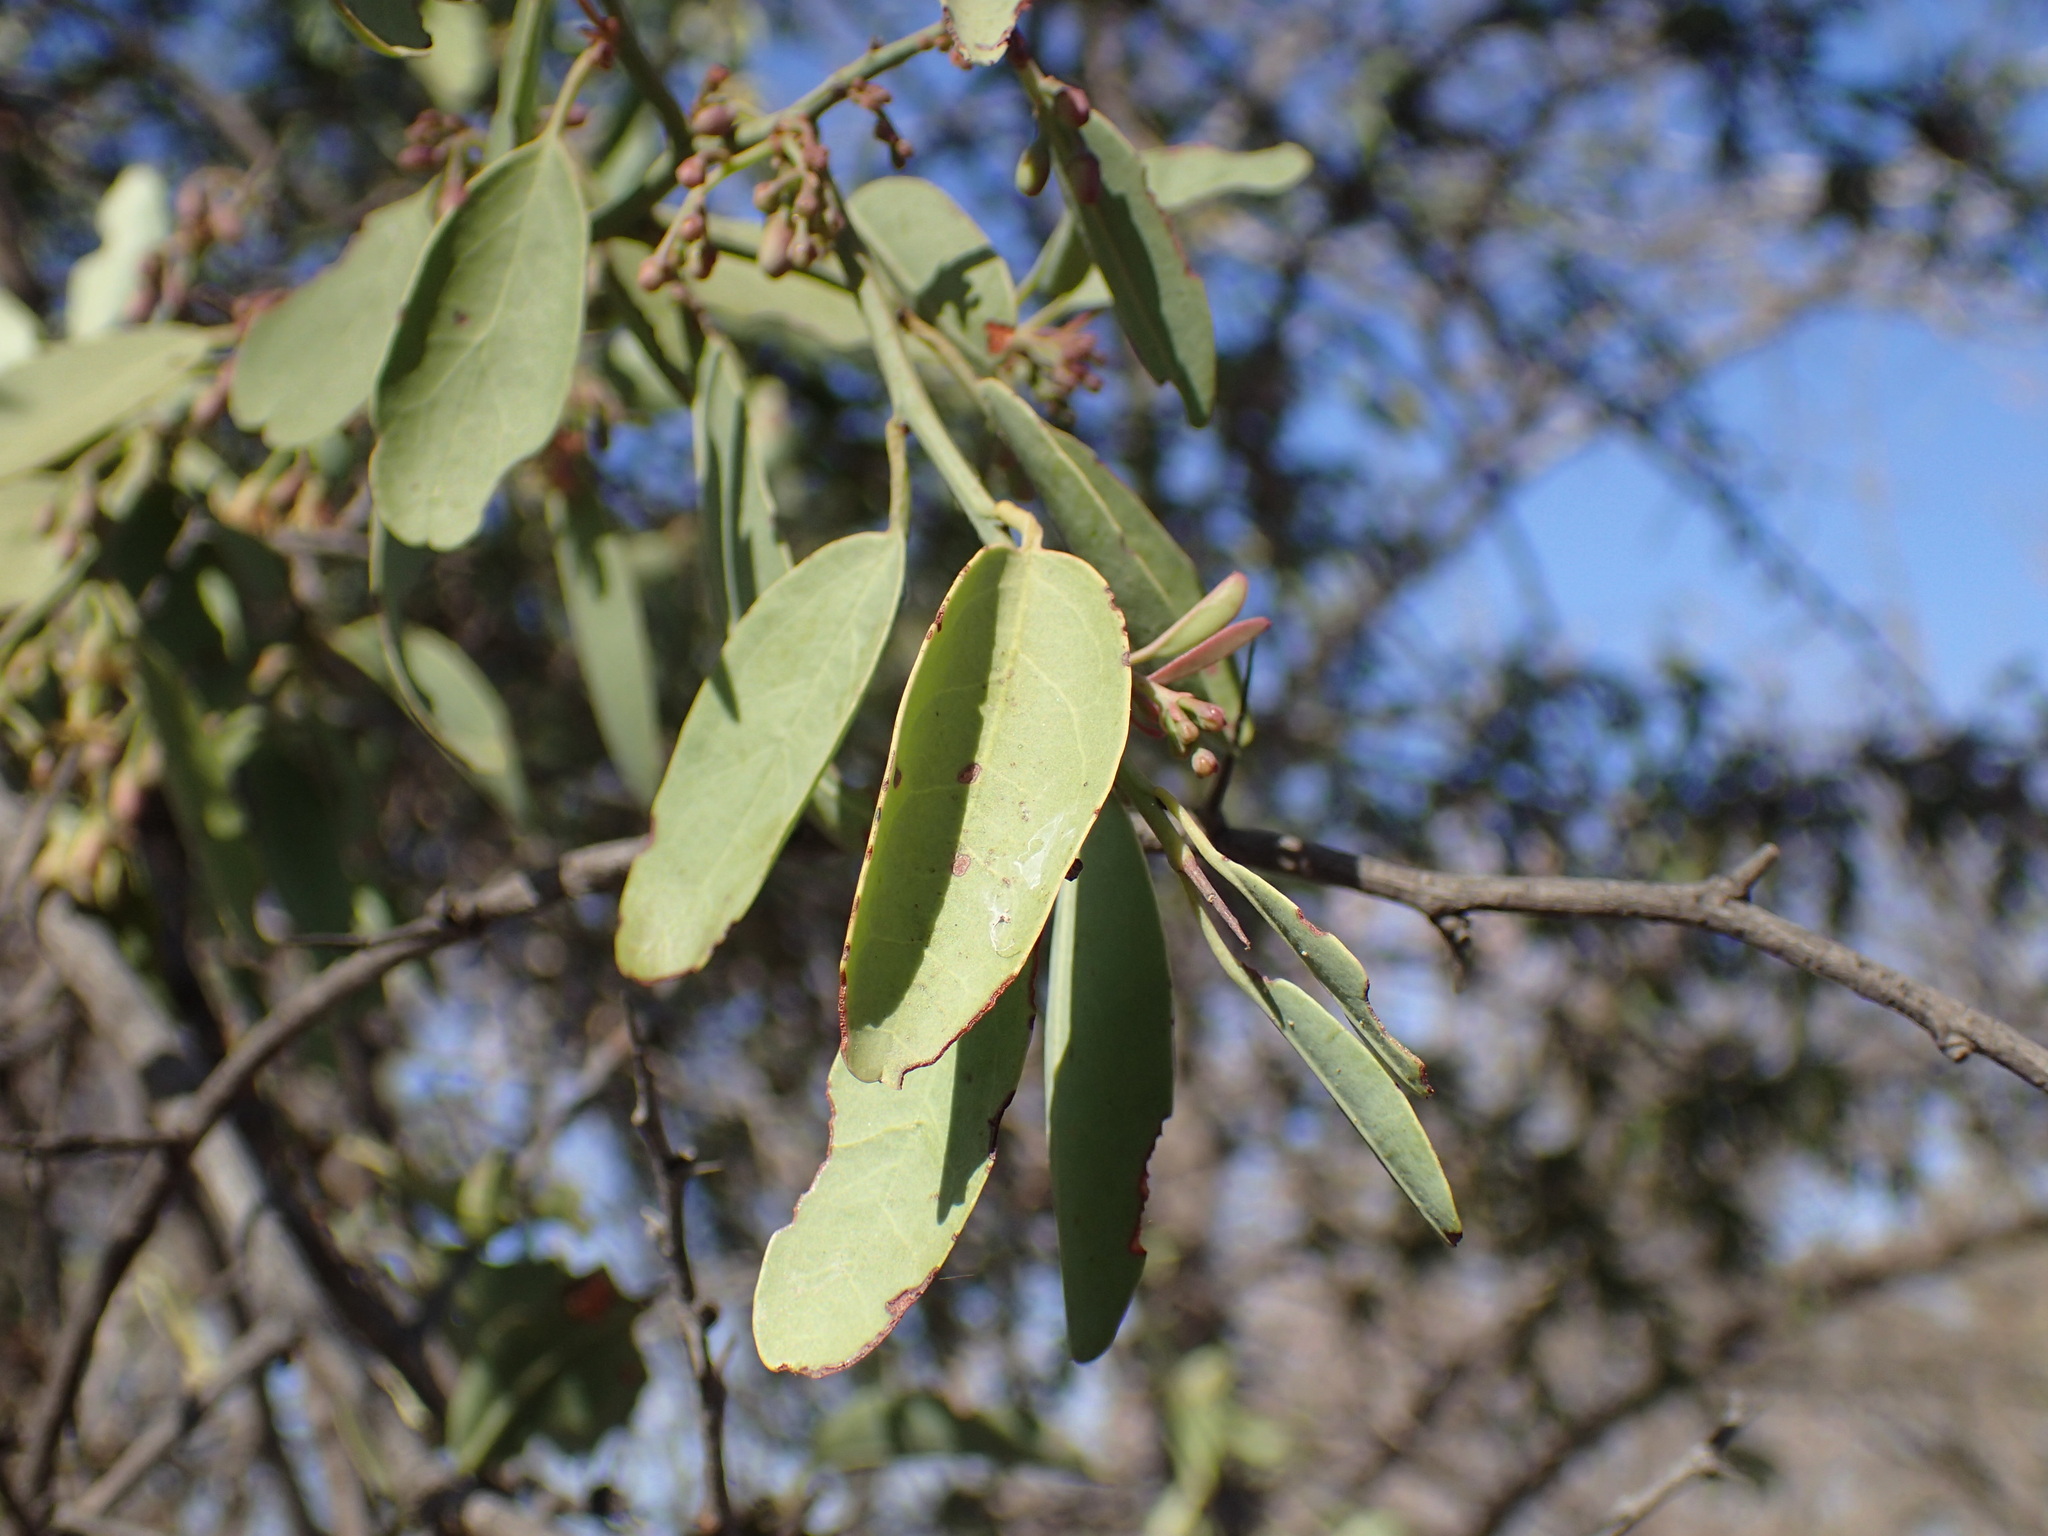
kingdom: Plantae
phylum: Tracheophyta
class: Magnoliopsida
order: Santalales
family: Ximeniaceae
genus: Ximenia
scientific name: Ximenia americana
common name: Tallowwood
